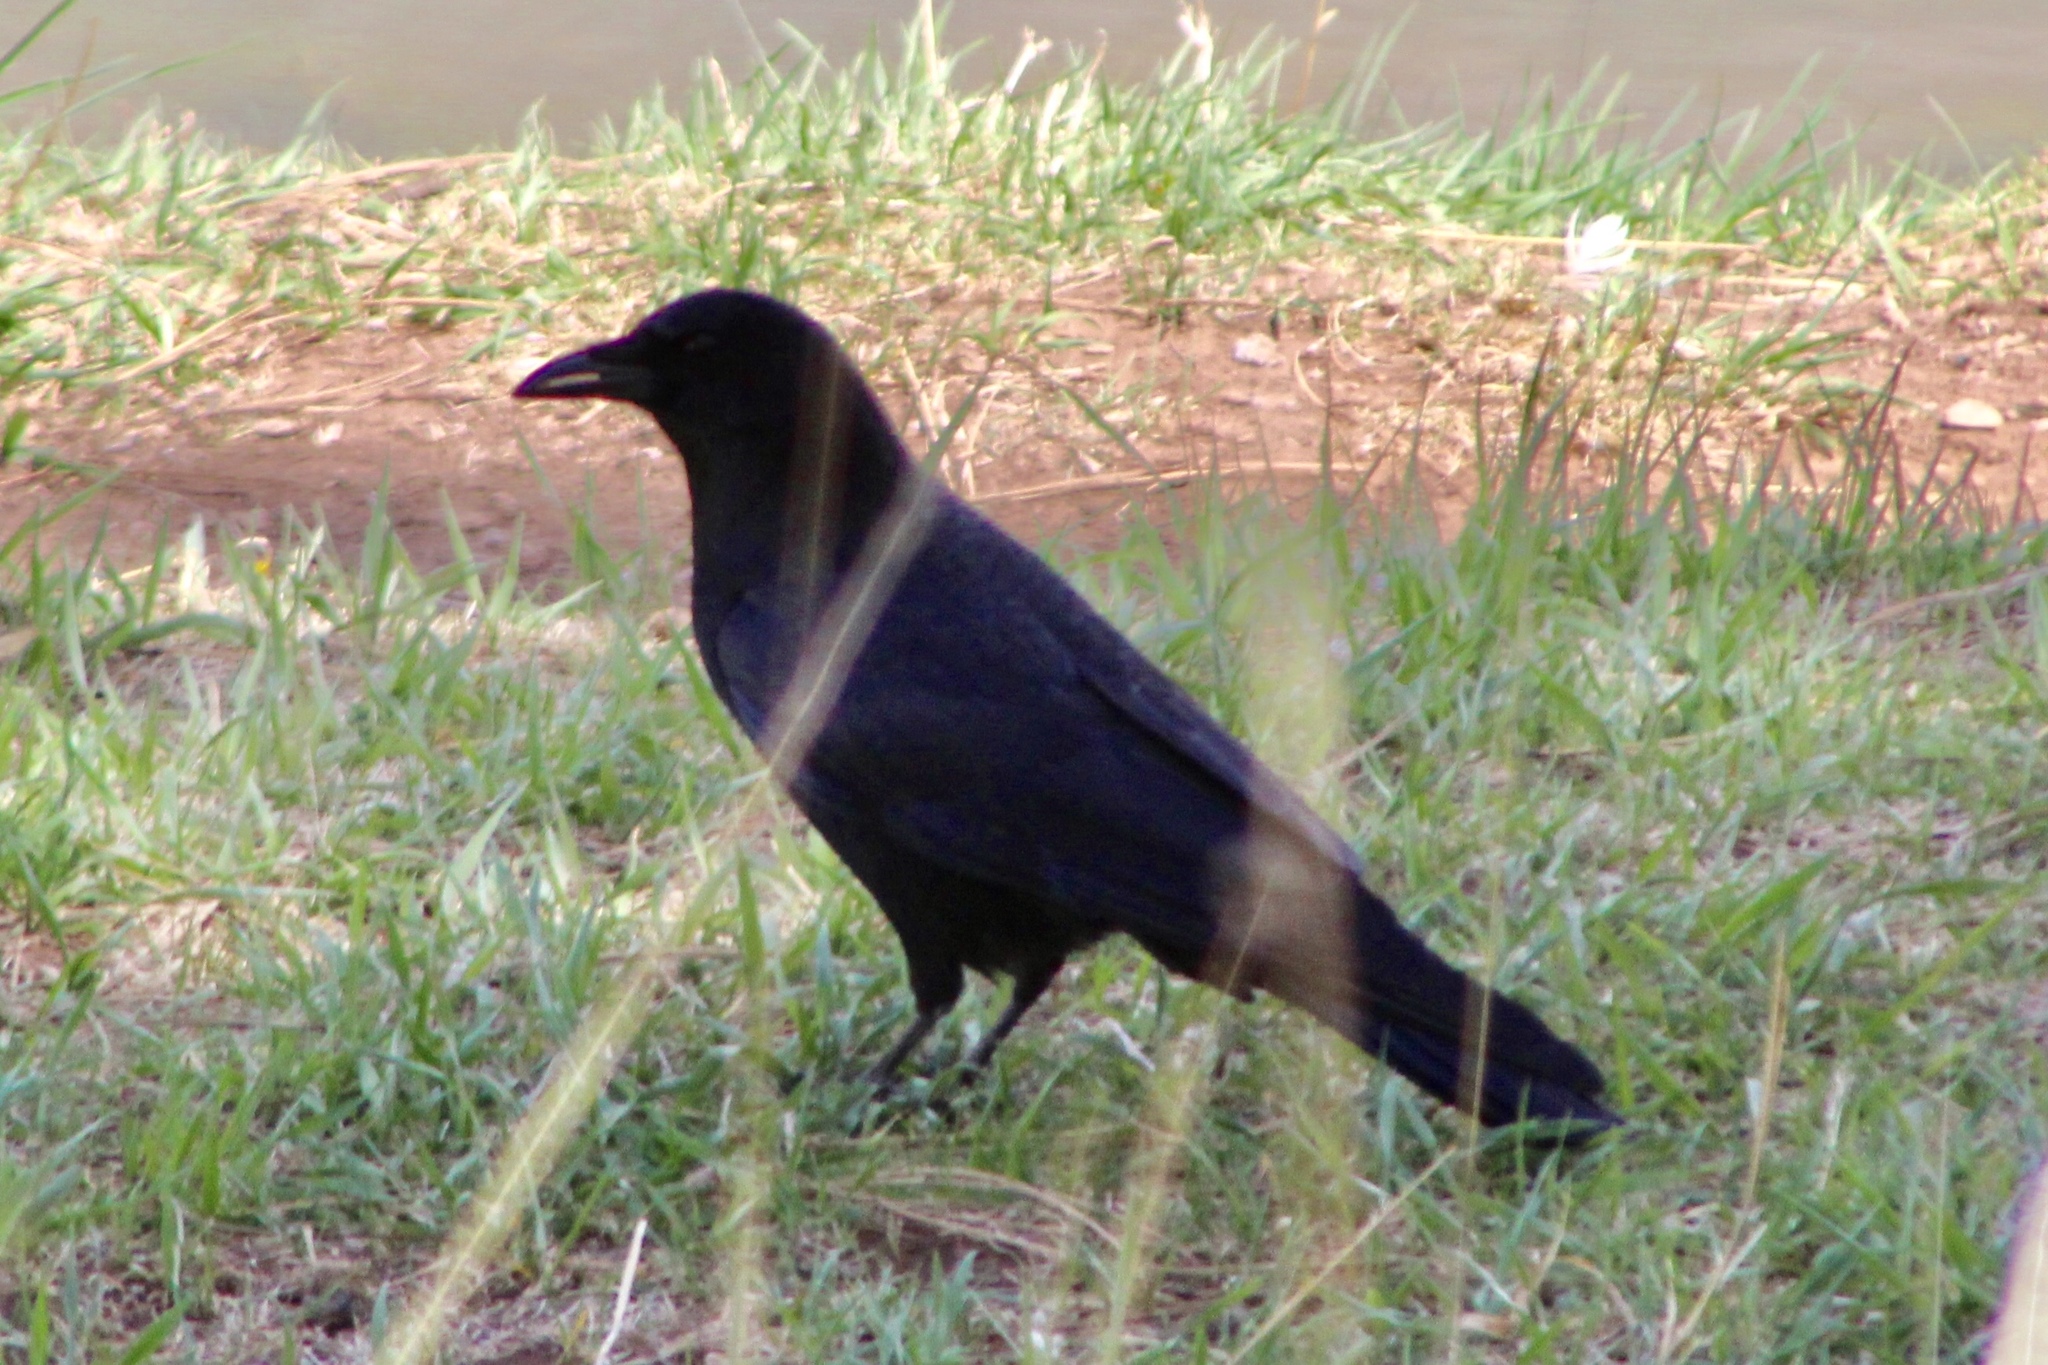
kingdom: Animalia
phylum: Chordata
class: Aves
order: Passeriformes
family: Corvidae
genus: Corvus
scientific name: Corvus brachyrhynchos
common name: American crow
